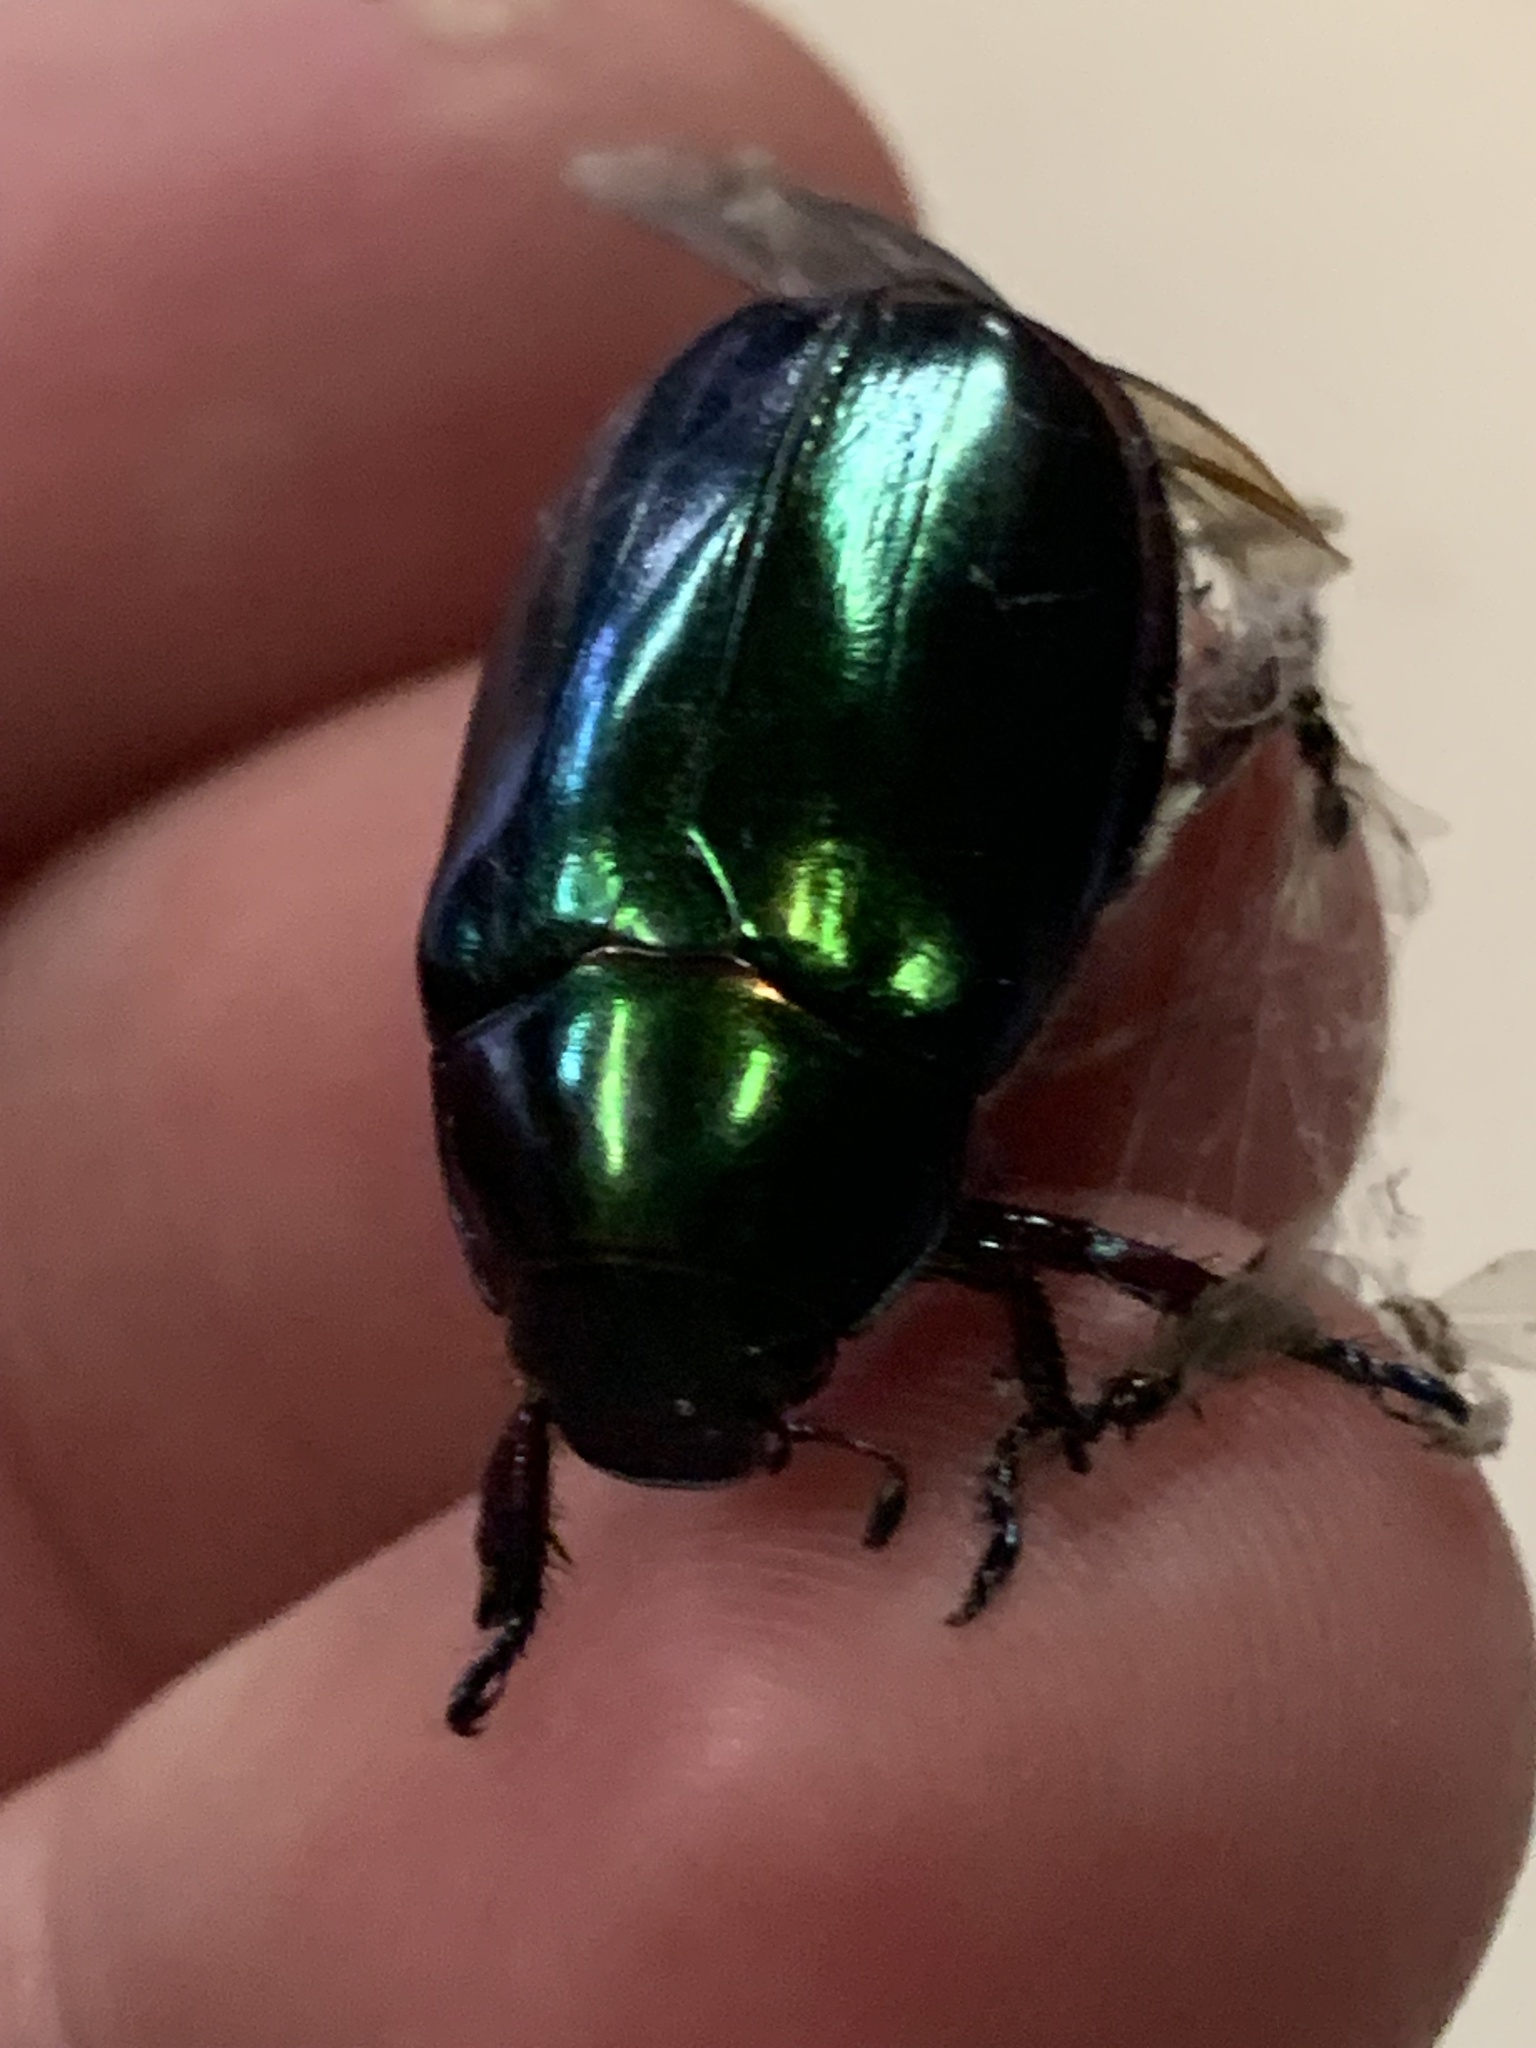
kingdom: Animalia
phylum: Arthropoda
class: Insecta
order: Coleoptera
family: Scarabaeidae
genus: Repsimus
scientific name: Repsimus aeneus
